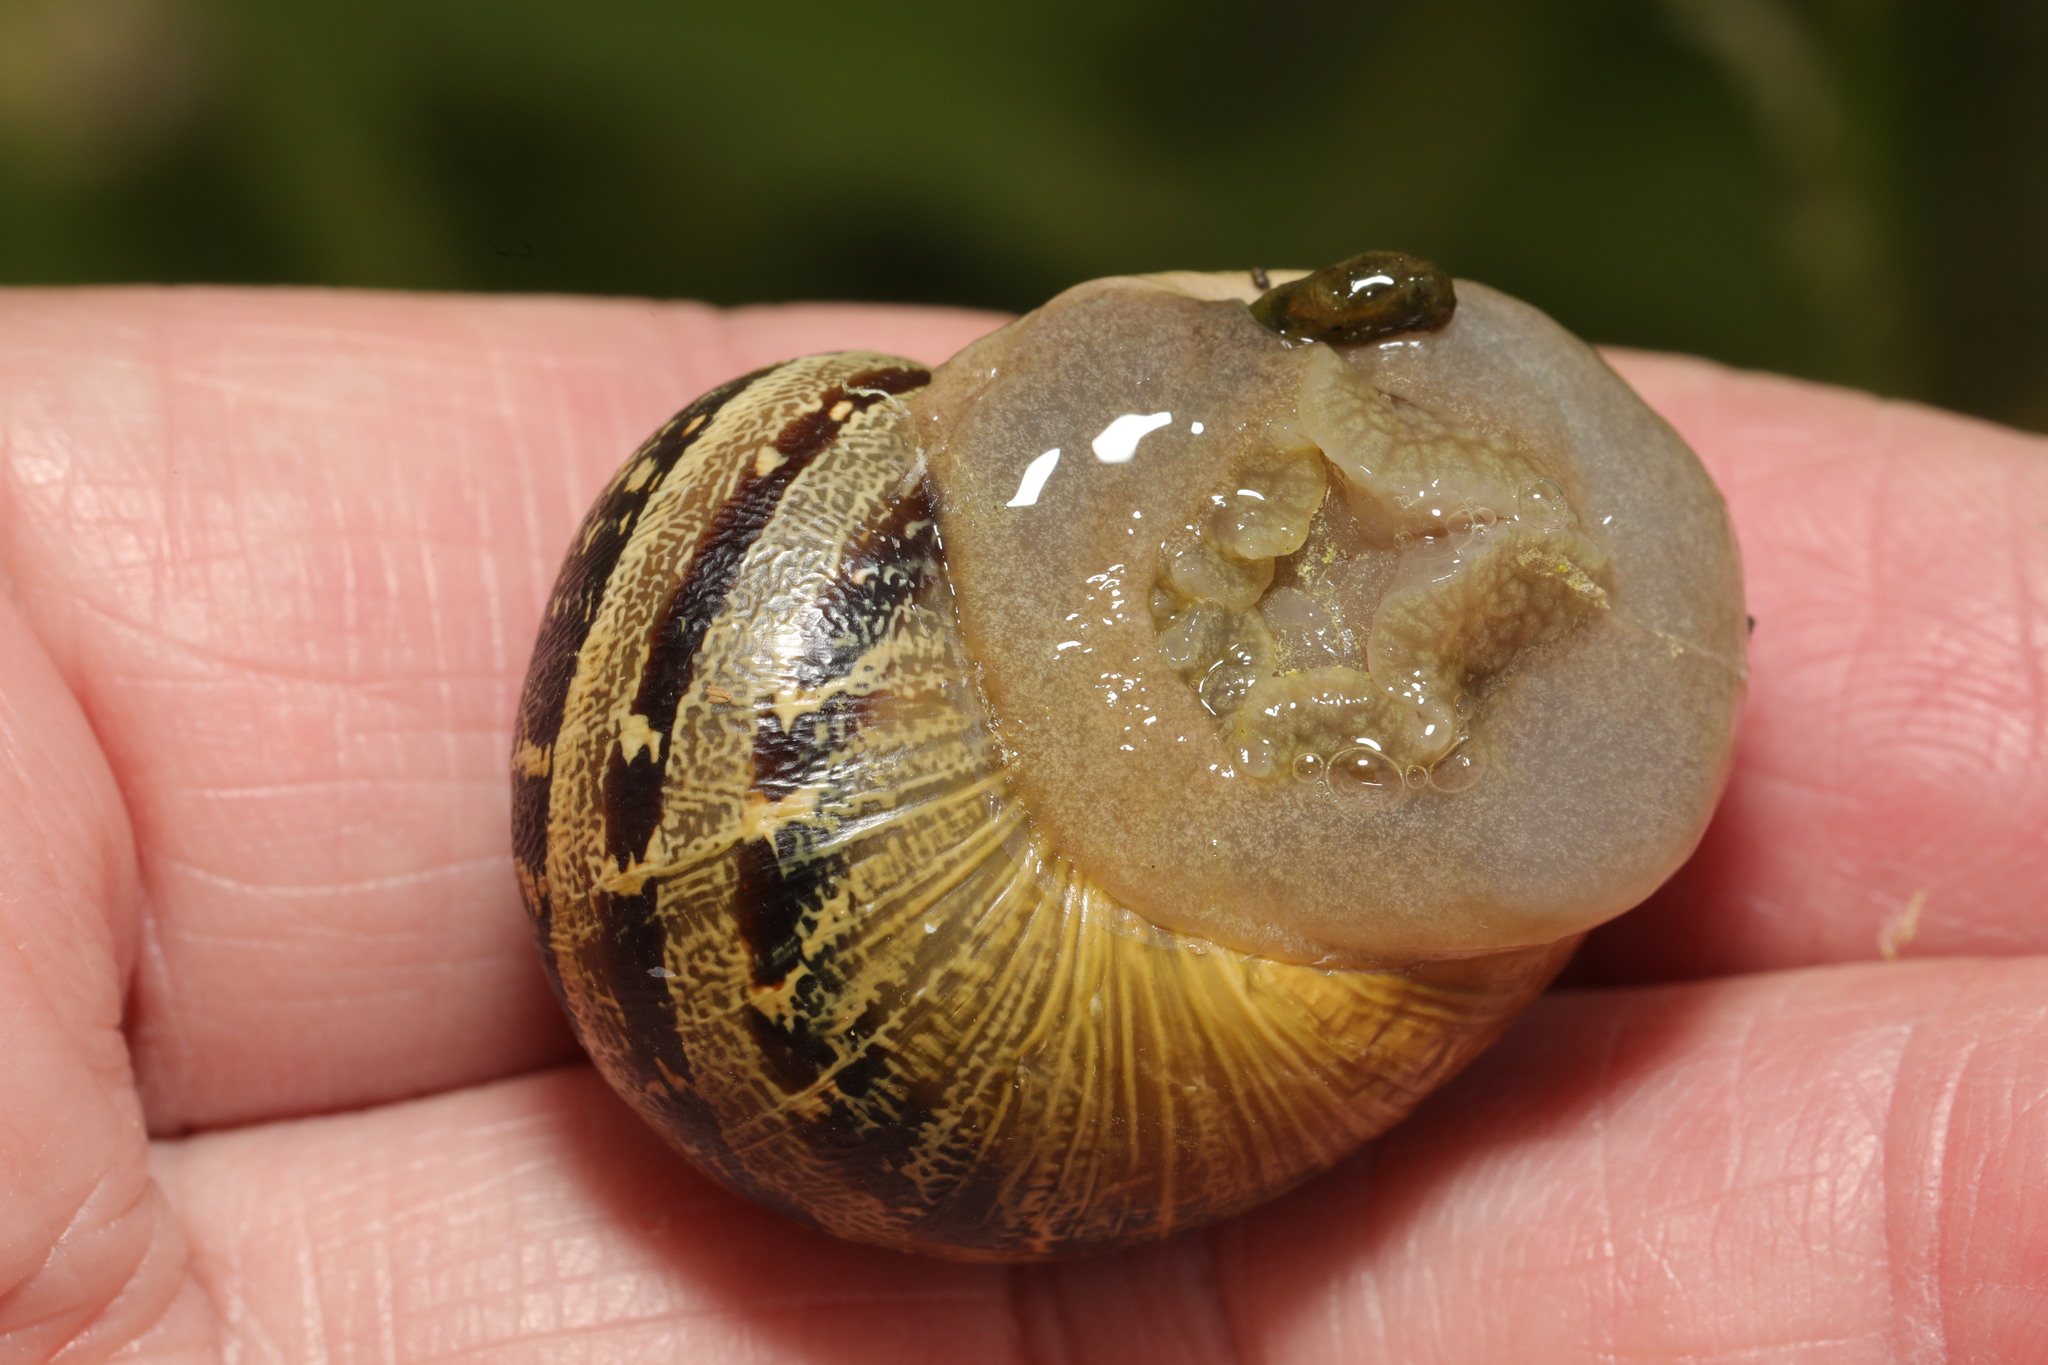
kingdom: Animalia
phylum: Mollusca
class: Gastropoda
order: Stylommatophora
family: Helicidae
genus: Cornu
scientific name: Cornu aspersum
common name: Brown garden snail
